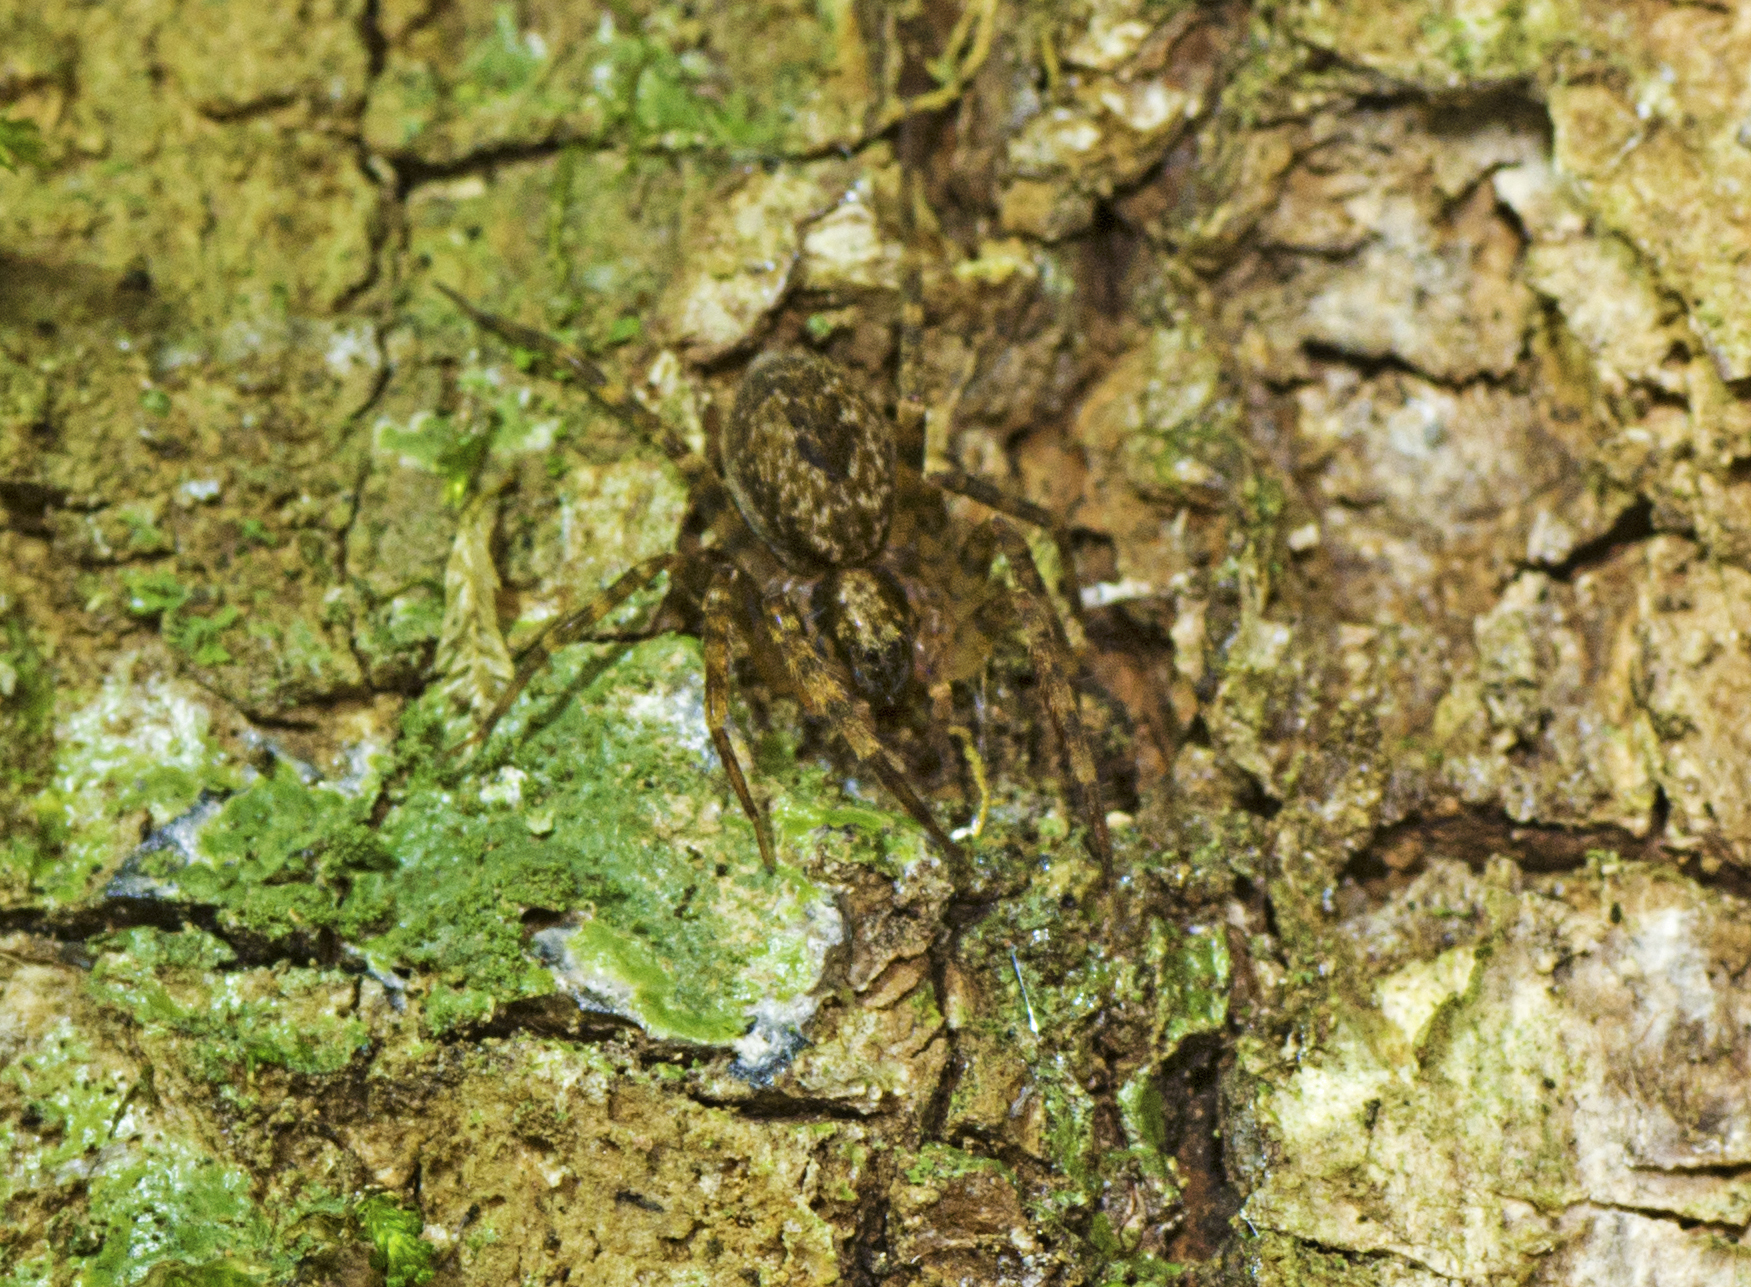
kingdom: Animalia
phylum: Arthropoda
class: Arachnida
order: Araneae
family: Toxopidae
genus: Toxopsoides
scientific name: Toxopsoides erici
